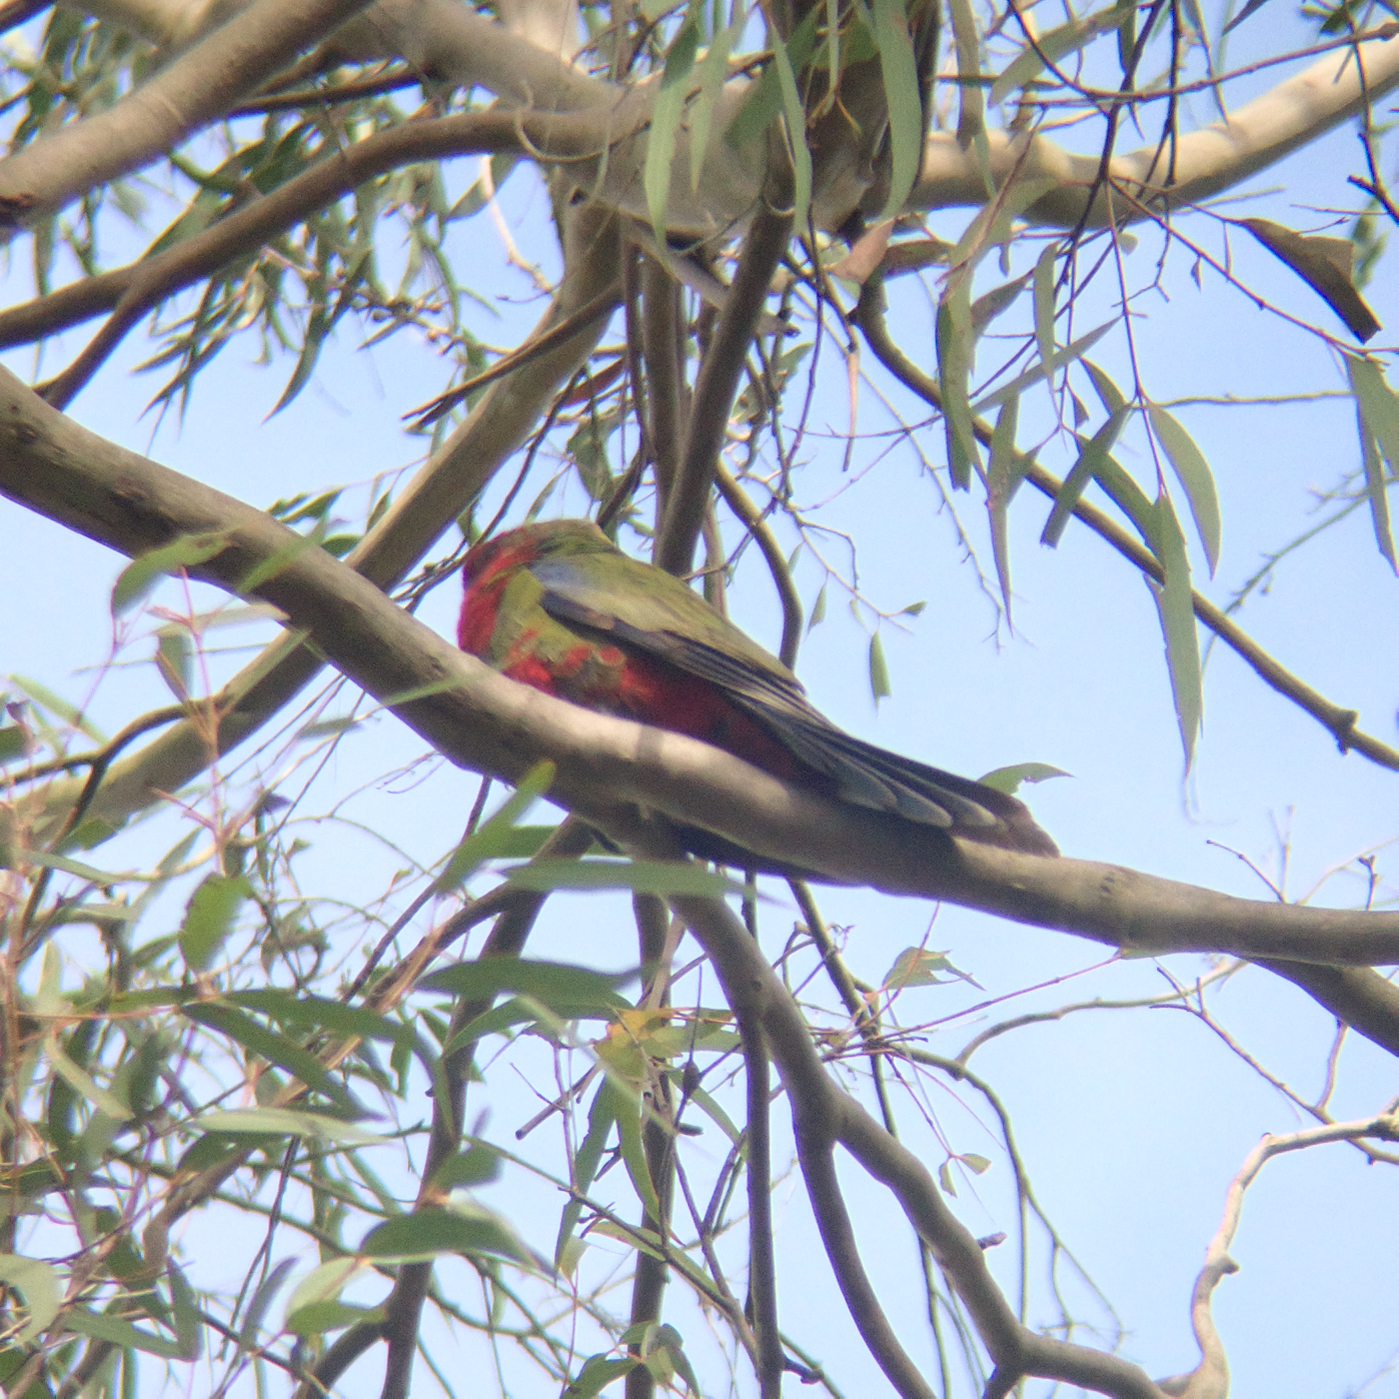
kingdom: Animalia
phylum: Chordata
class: Aves
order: Psittaciformes
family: Psittacidae
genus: Platycercus
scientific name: Platycercus elegans
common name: Crimson rosella
